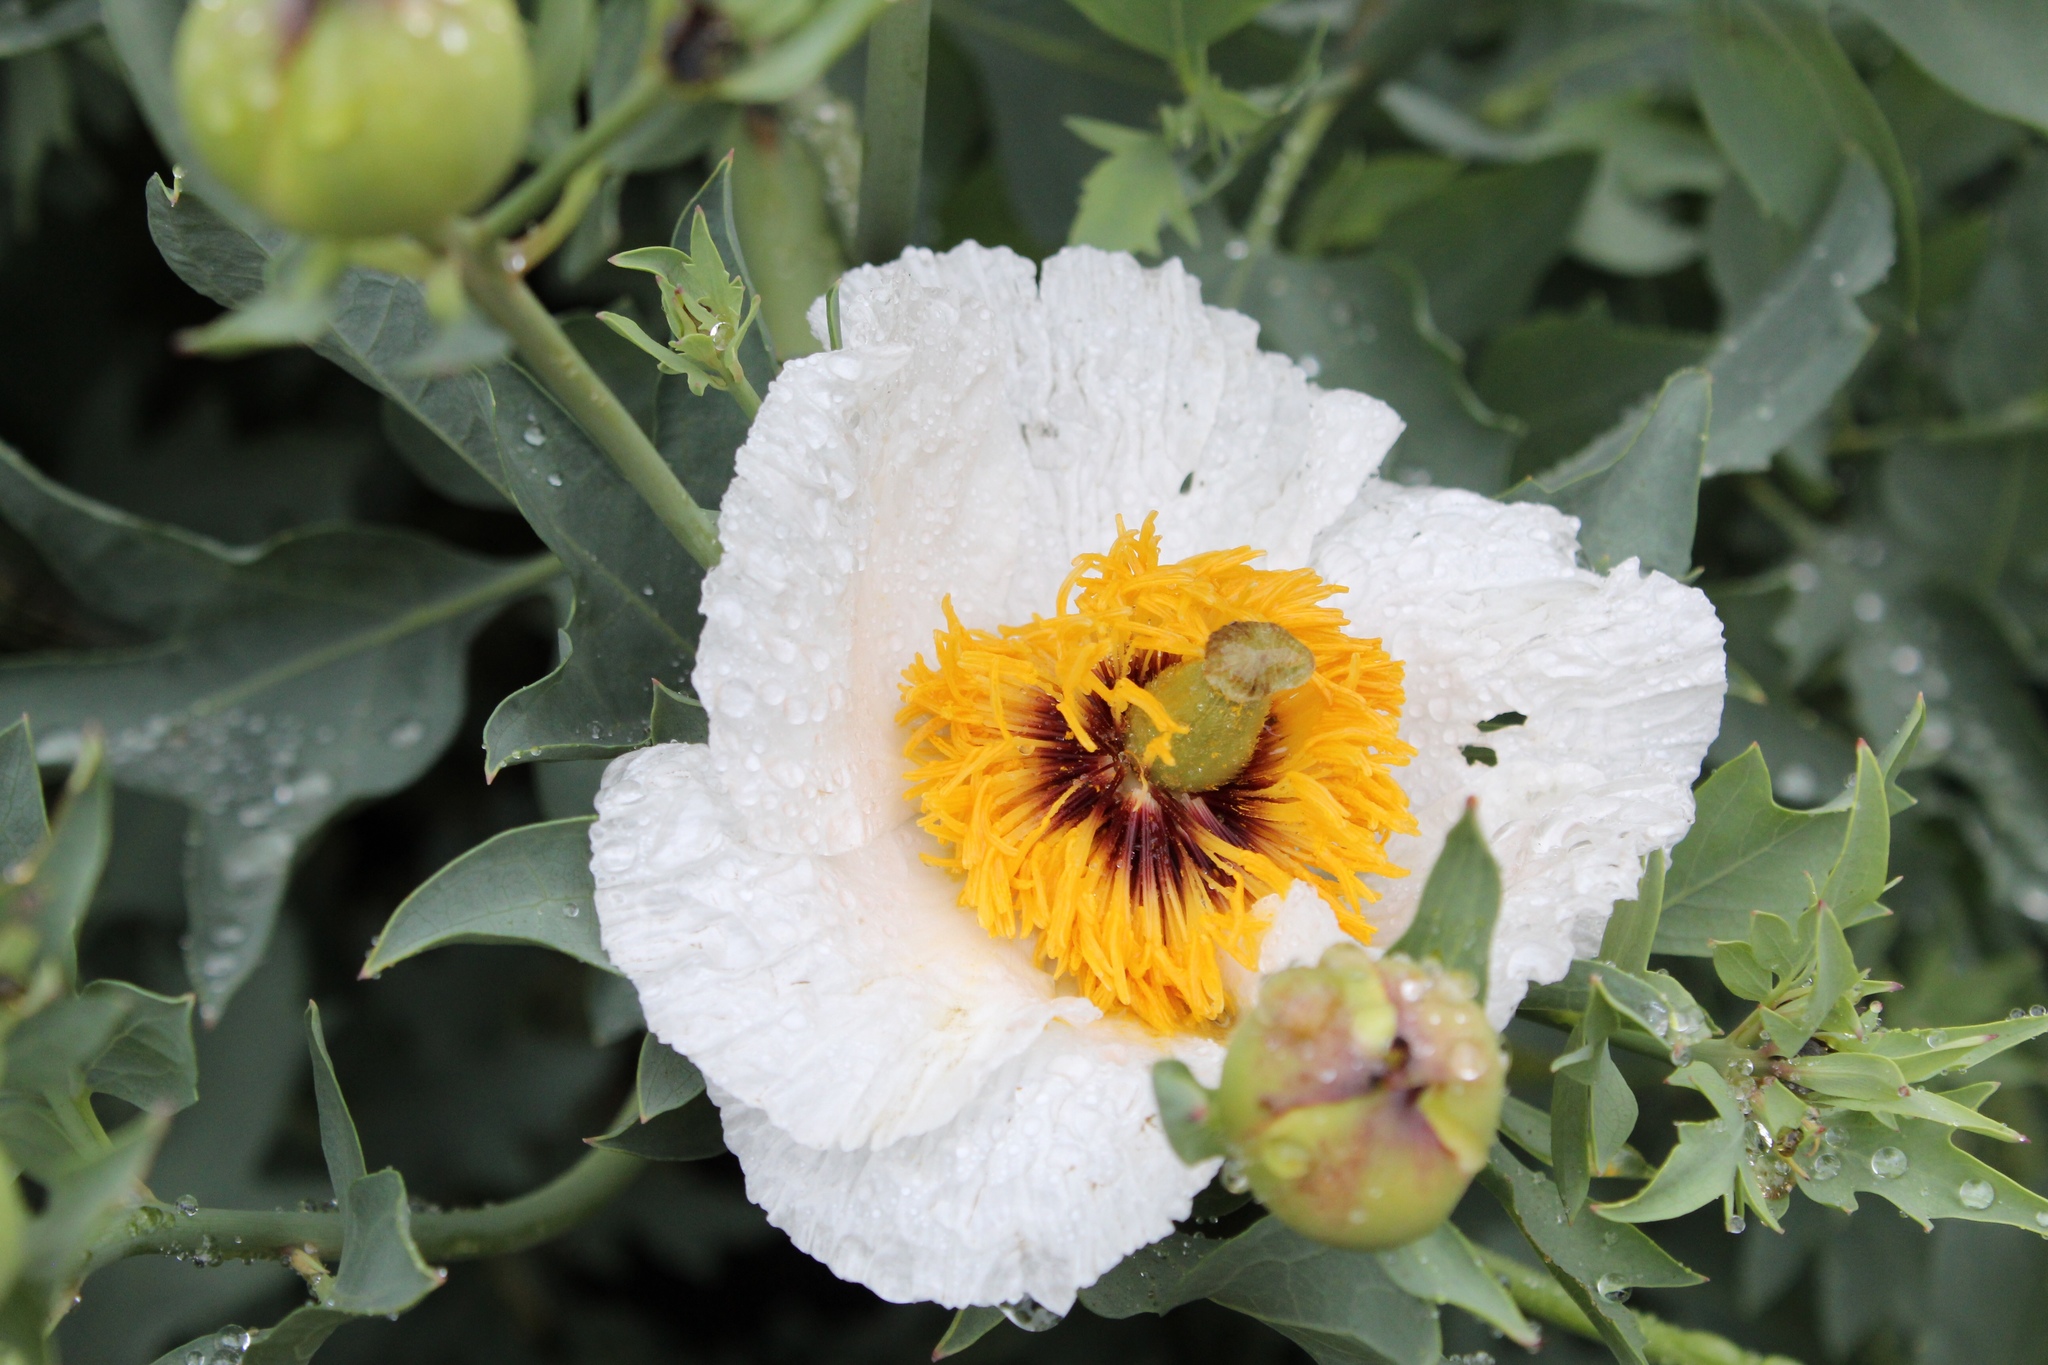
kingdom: Plantae
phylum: Tracheophyta
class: Magnoliopsida
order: Ranunculales
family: Papaveraceae
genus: Romneya
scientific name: Romneya coulteri
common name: California tree-poppy
